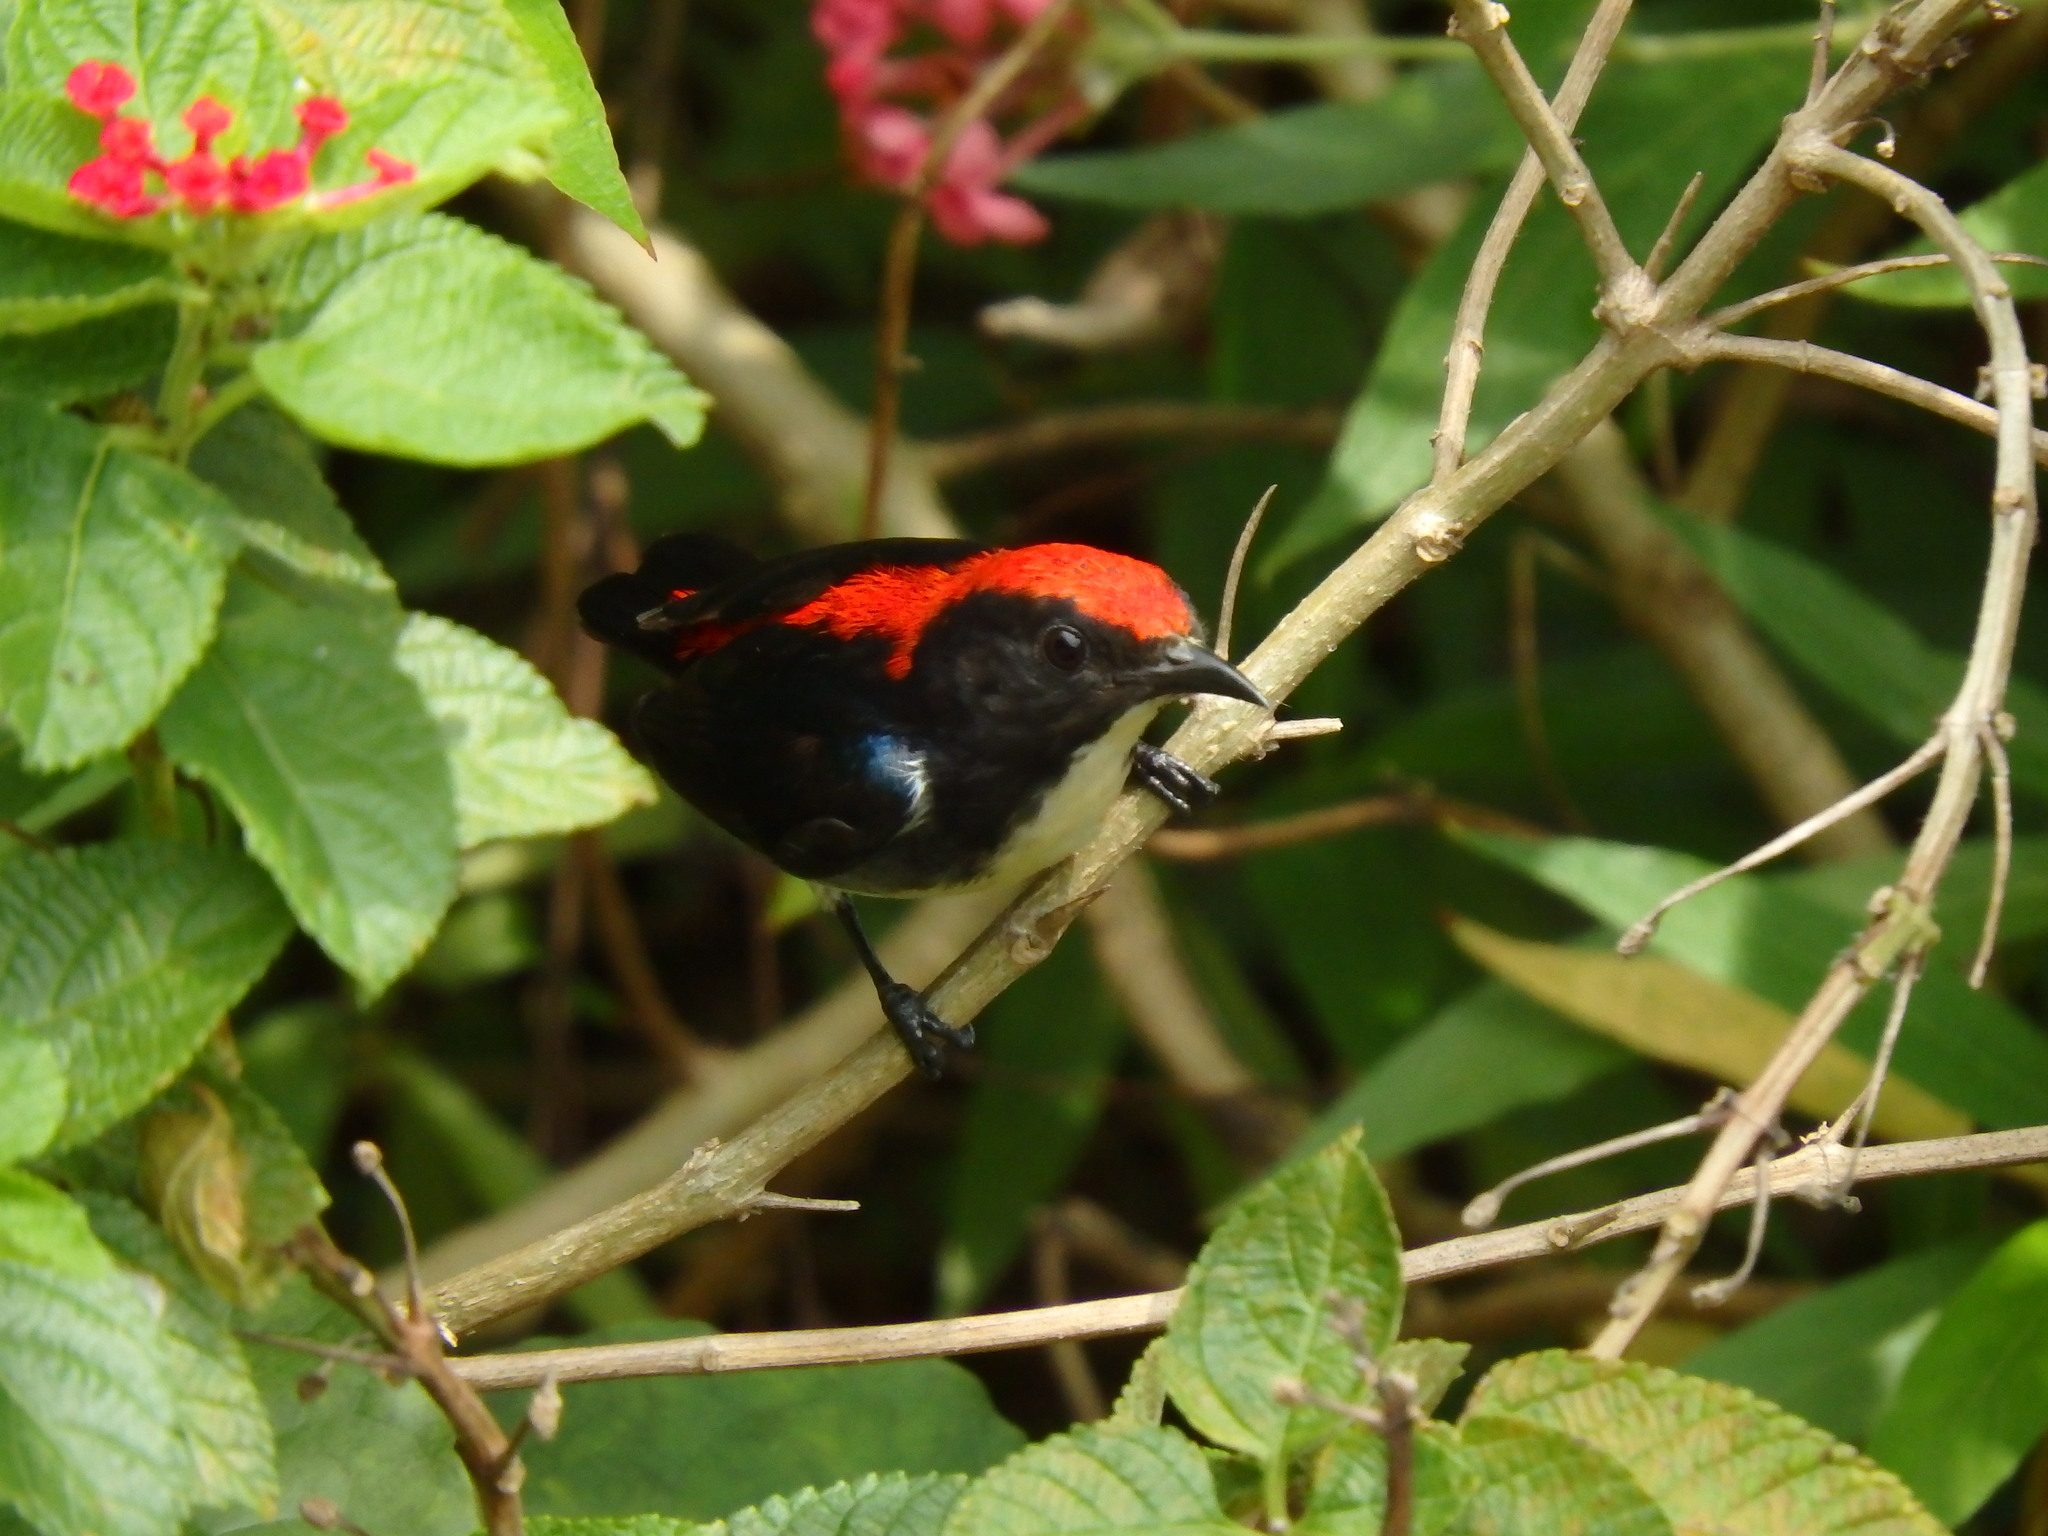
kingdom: Animalia
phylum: Chordata
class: Aves
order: Passeriformes
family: Dicaeidae
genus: Dicaeum
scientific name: Dicaeum cruentatum
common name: Scarlet-backed flowerpecker
